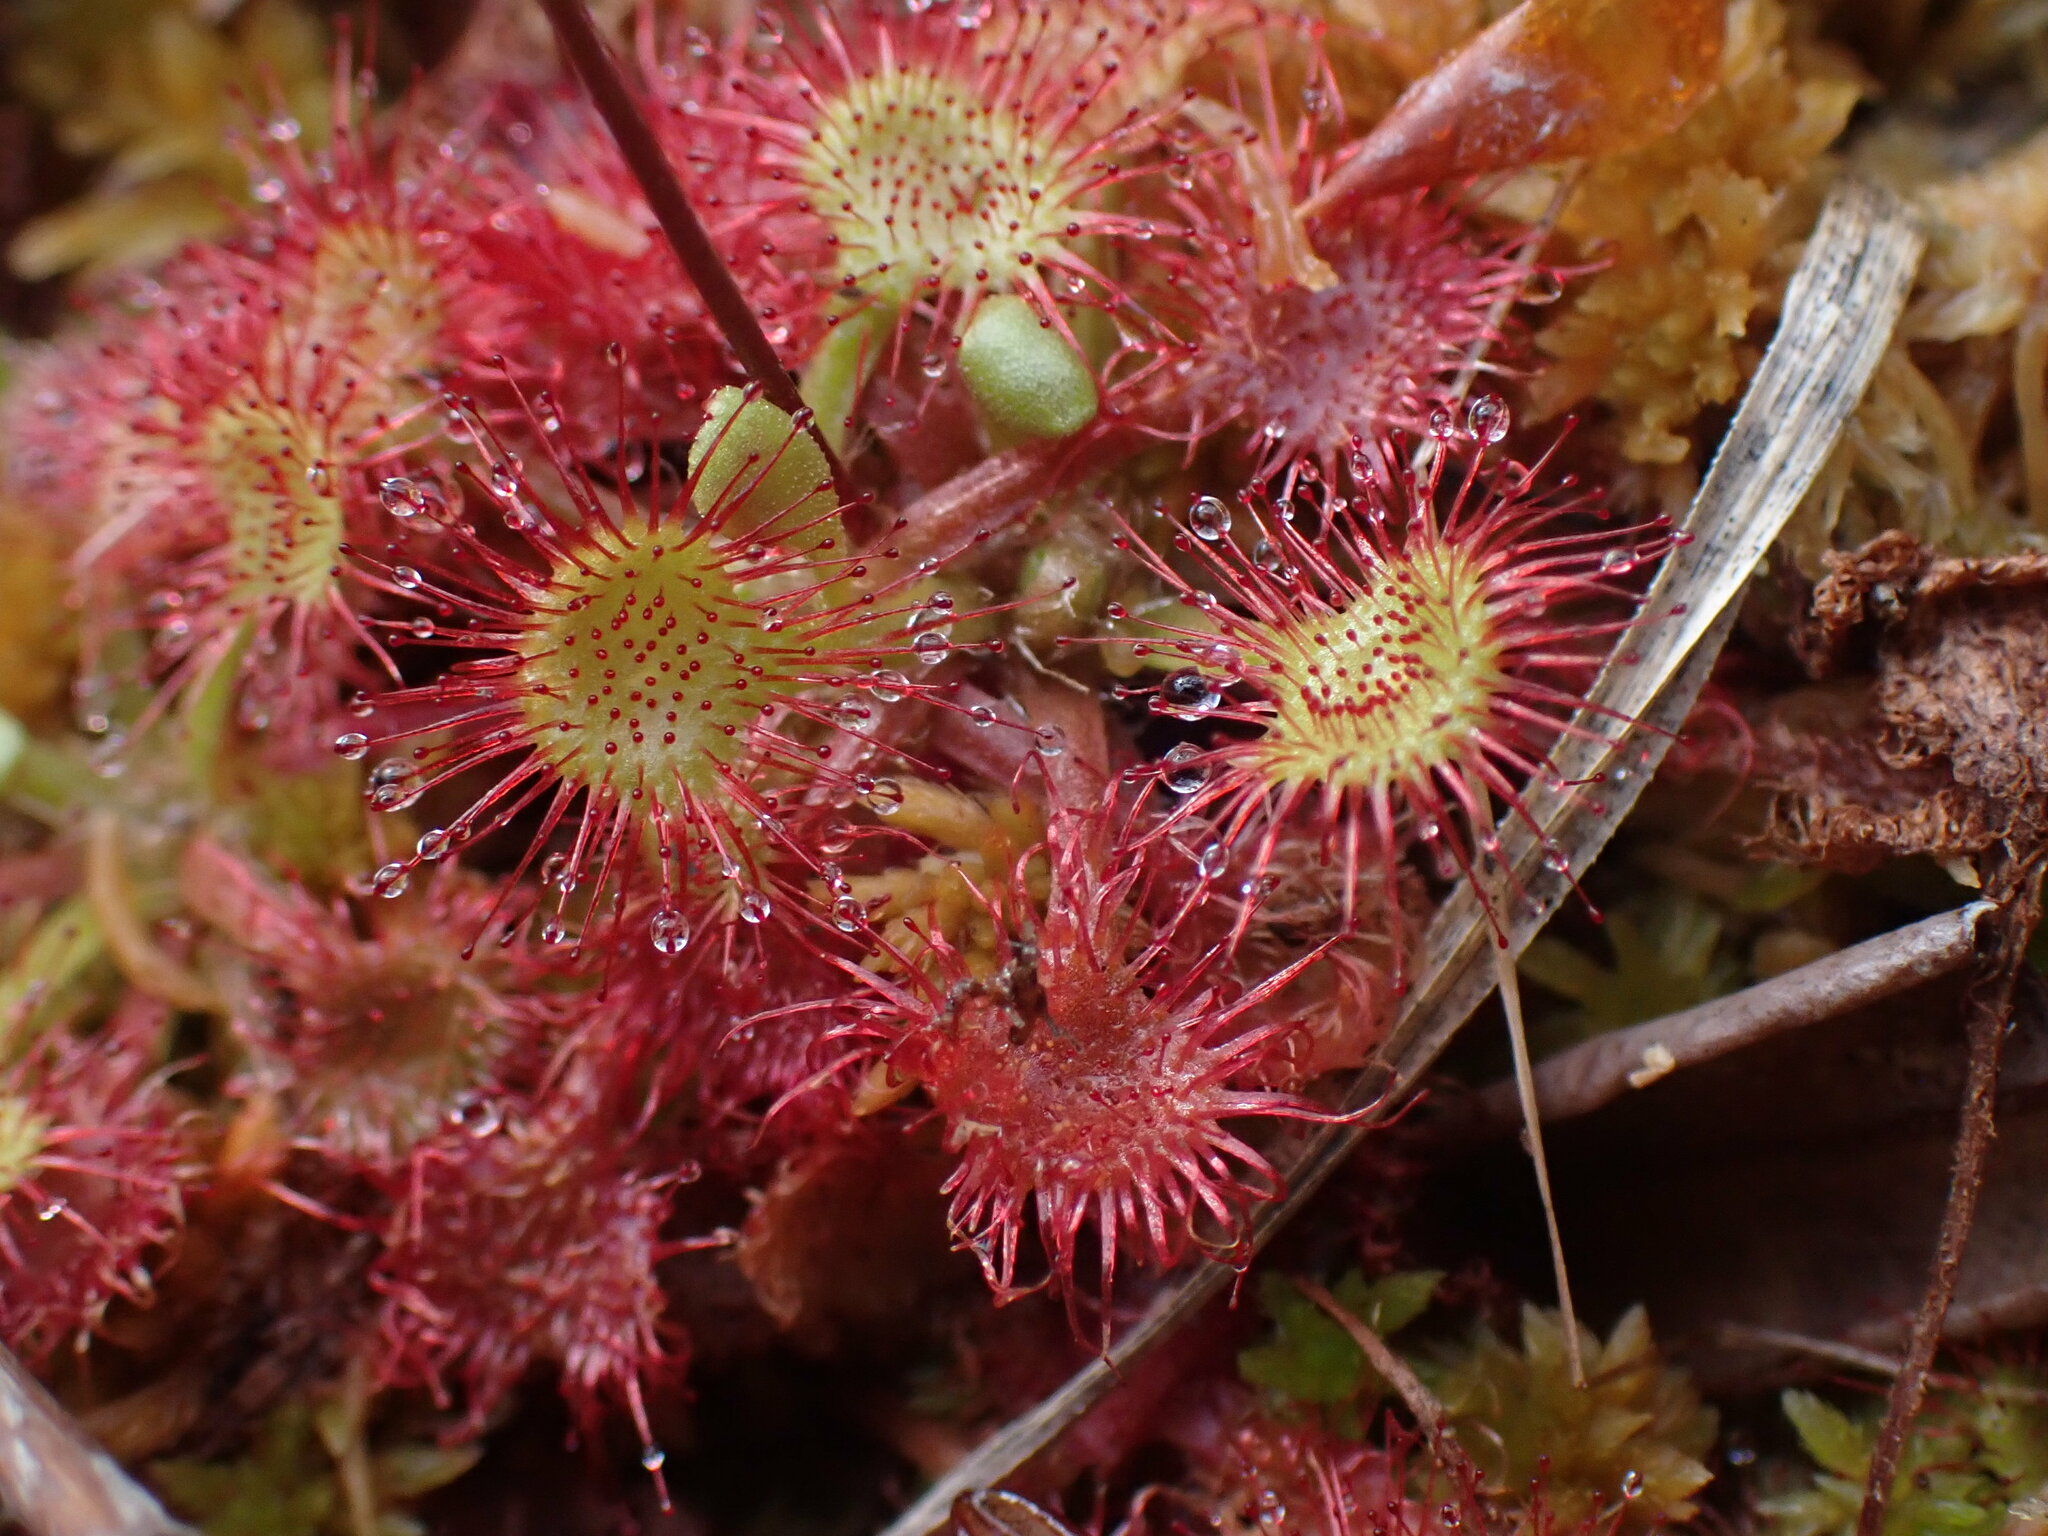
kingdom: Plantae
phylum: Tracheophyta
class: Magnoliopsida
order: Caryophyllales
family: Droseraceae
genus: Drosera
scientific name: Drosera rotundifolia
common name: Round-leaved sundew
